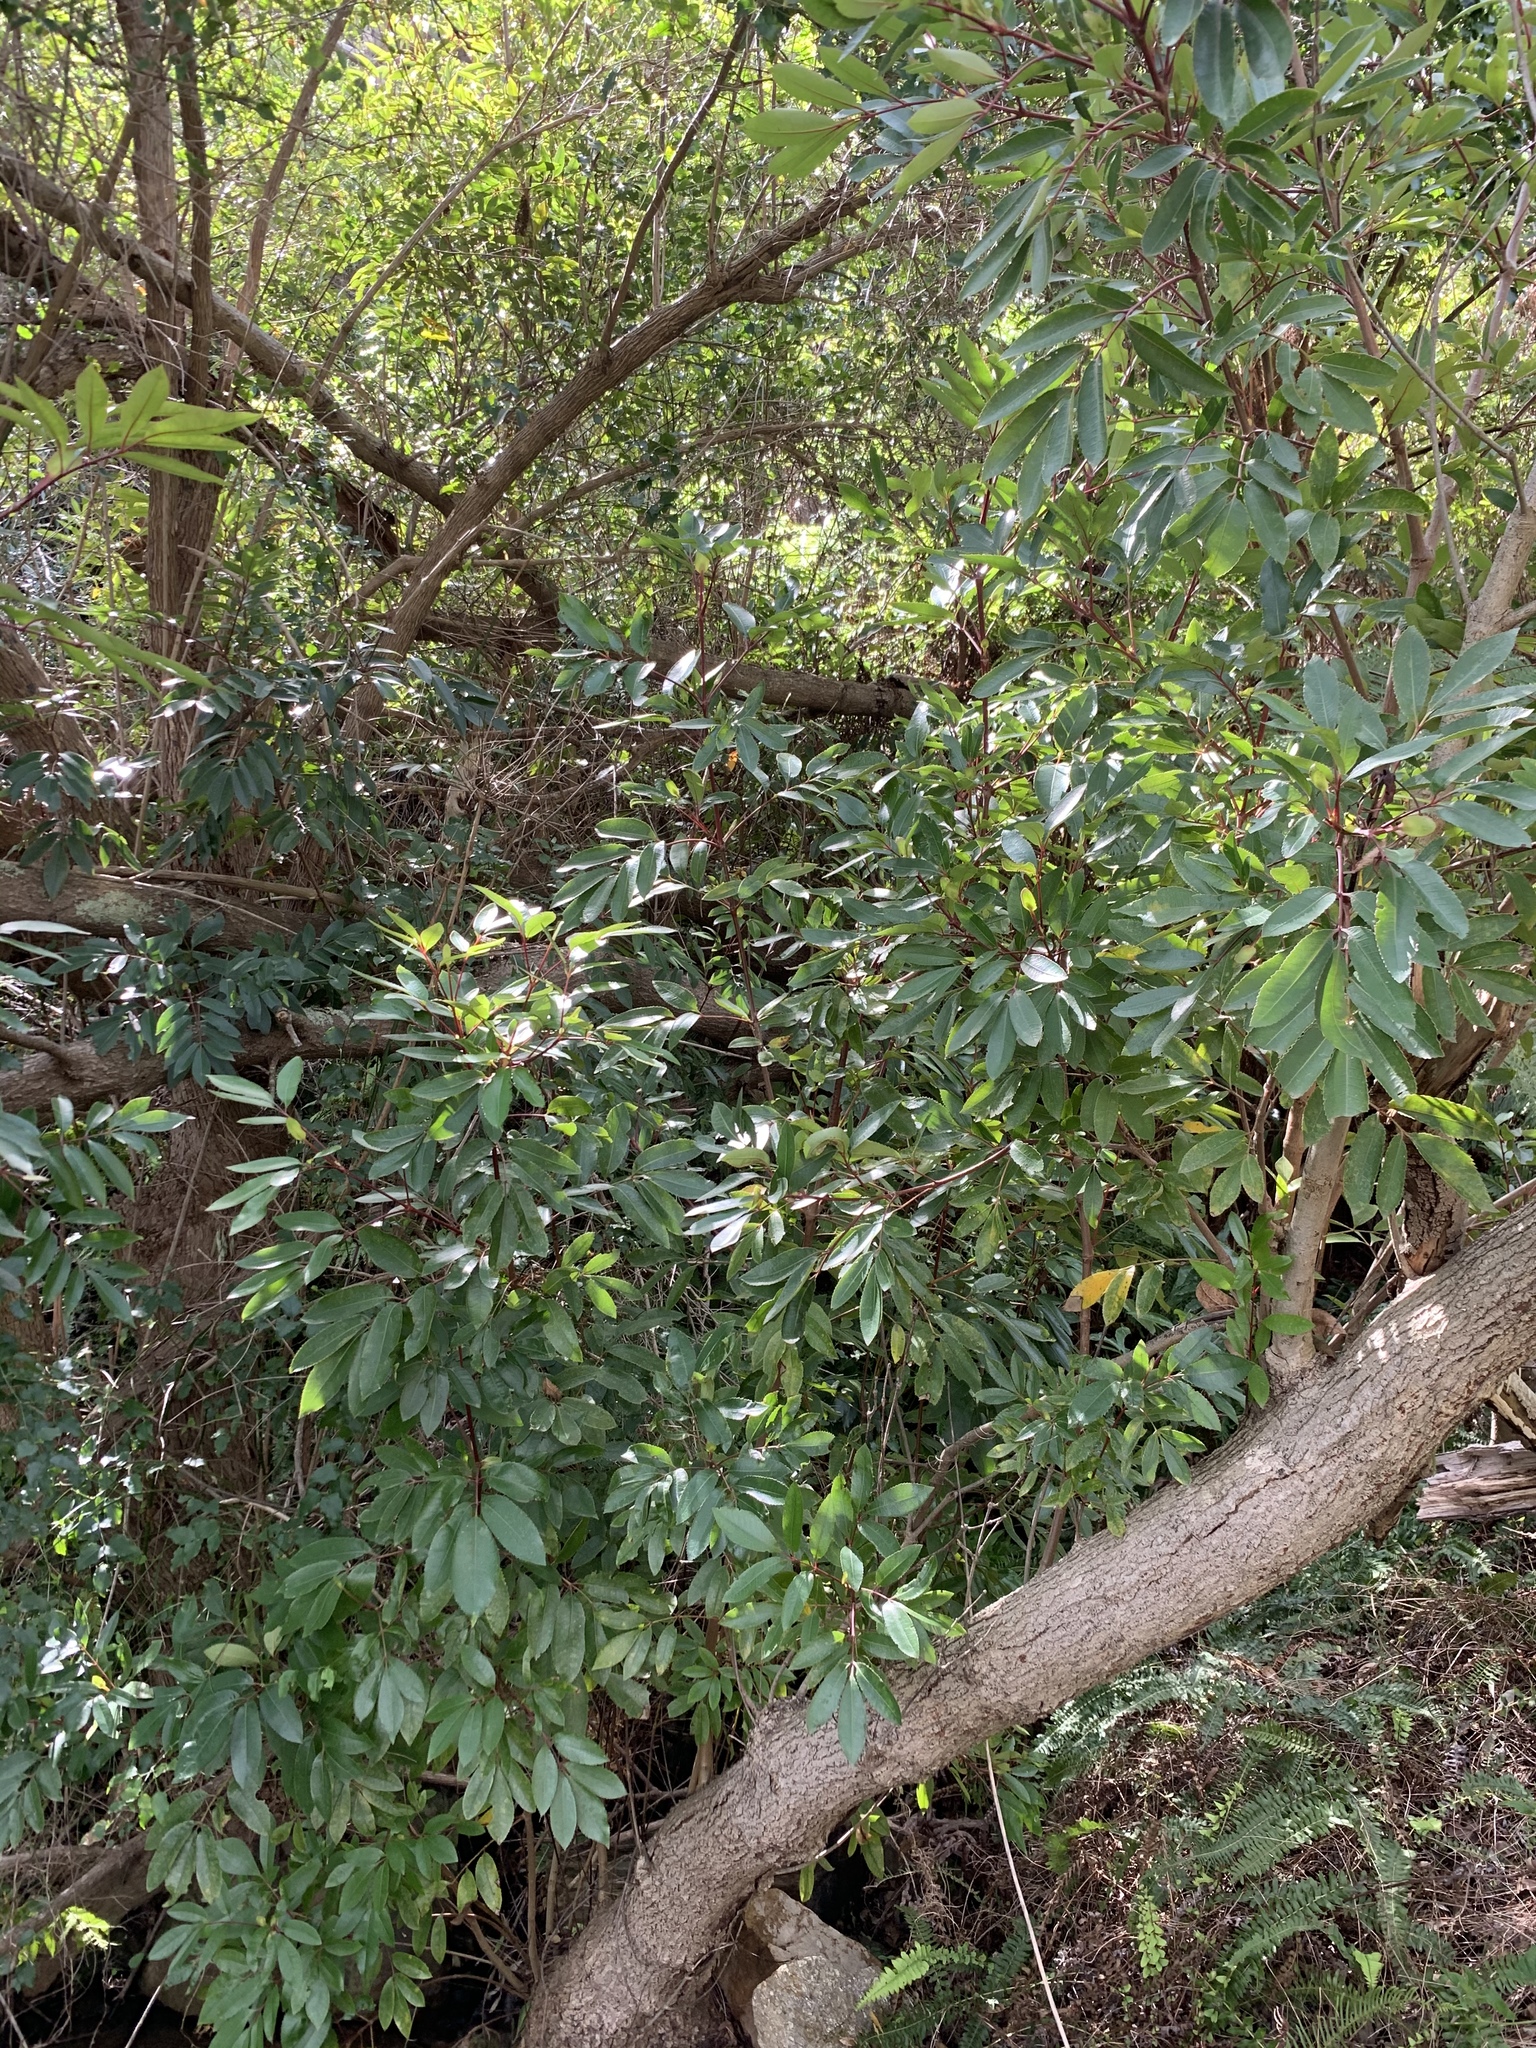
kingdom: Plantae
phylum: Tracheophyta
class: Magnoliopsida
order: Oxalidales
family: Cunoniaceae
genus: Cunonia
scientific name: Cunonia capensis
